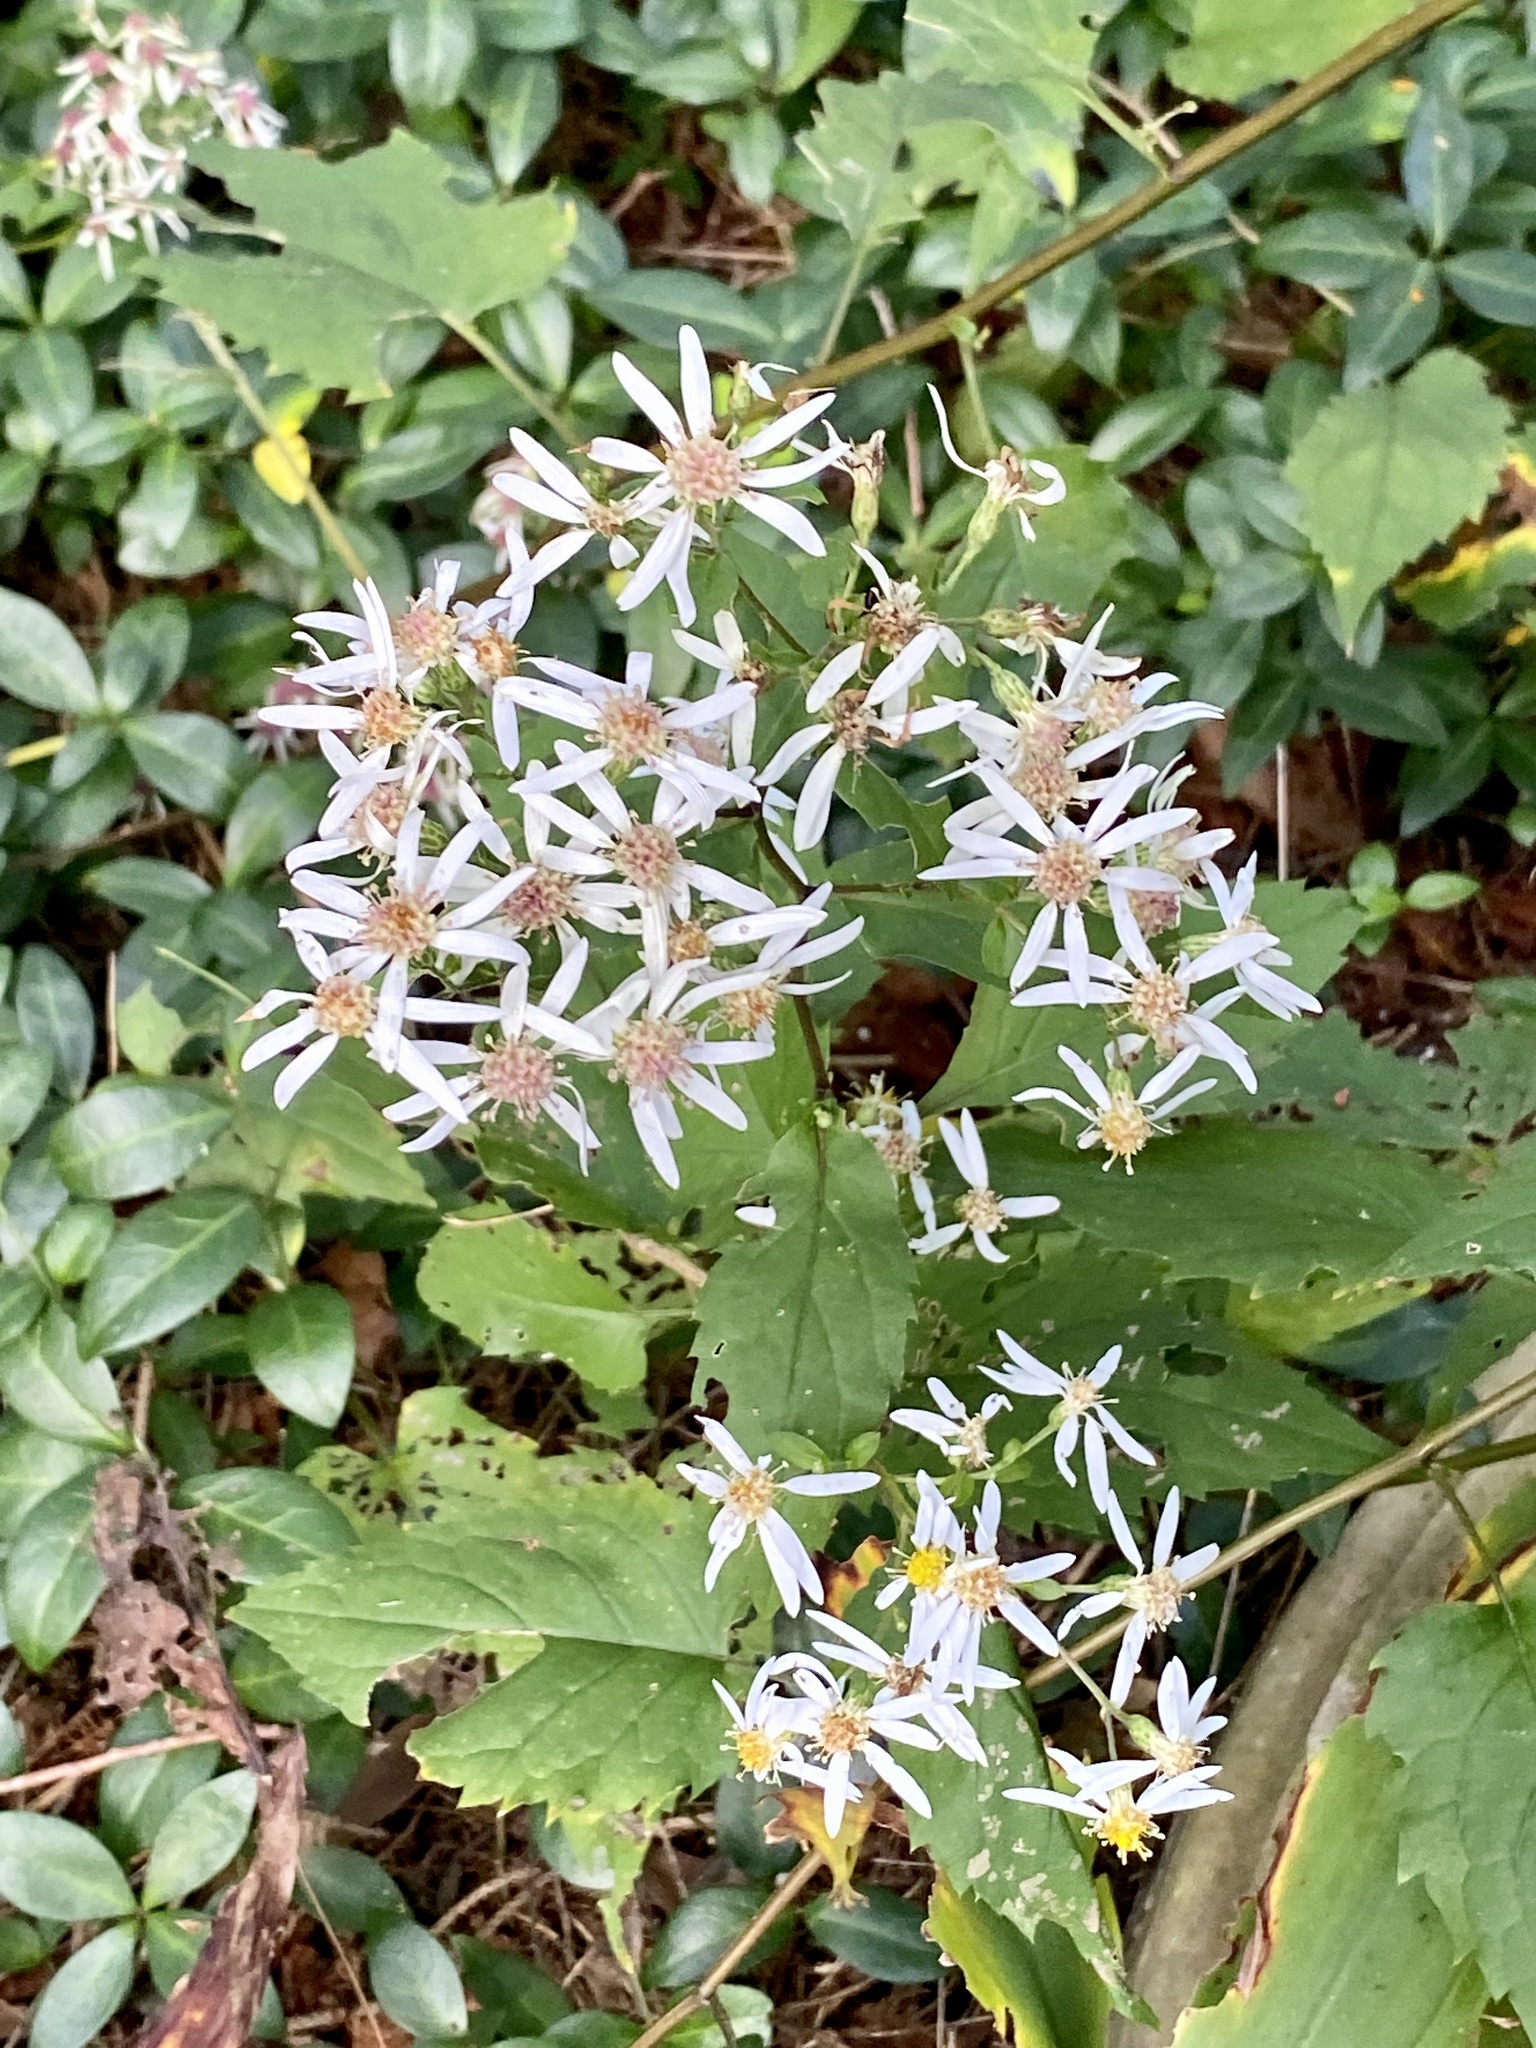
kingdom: Plantae
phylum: Tracheophyta
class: Magnoliopsida
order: Asterales
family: Asteraceae
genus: Eurybia
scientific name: Eurybia divaricata
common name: White wood aster
